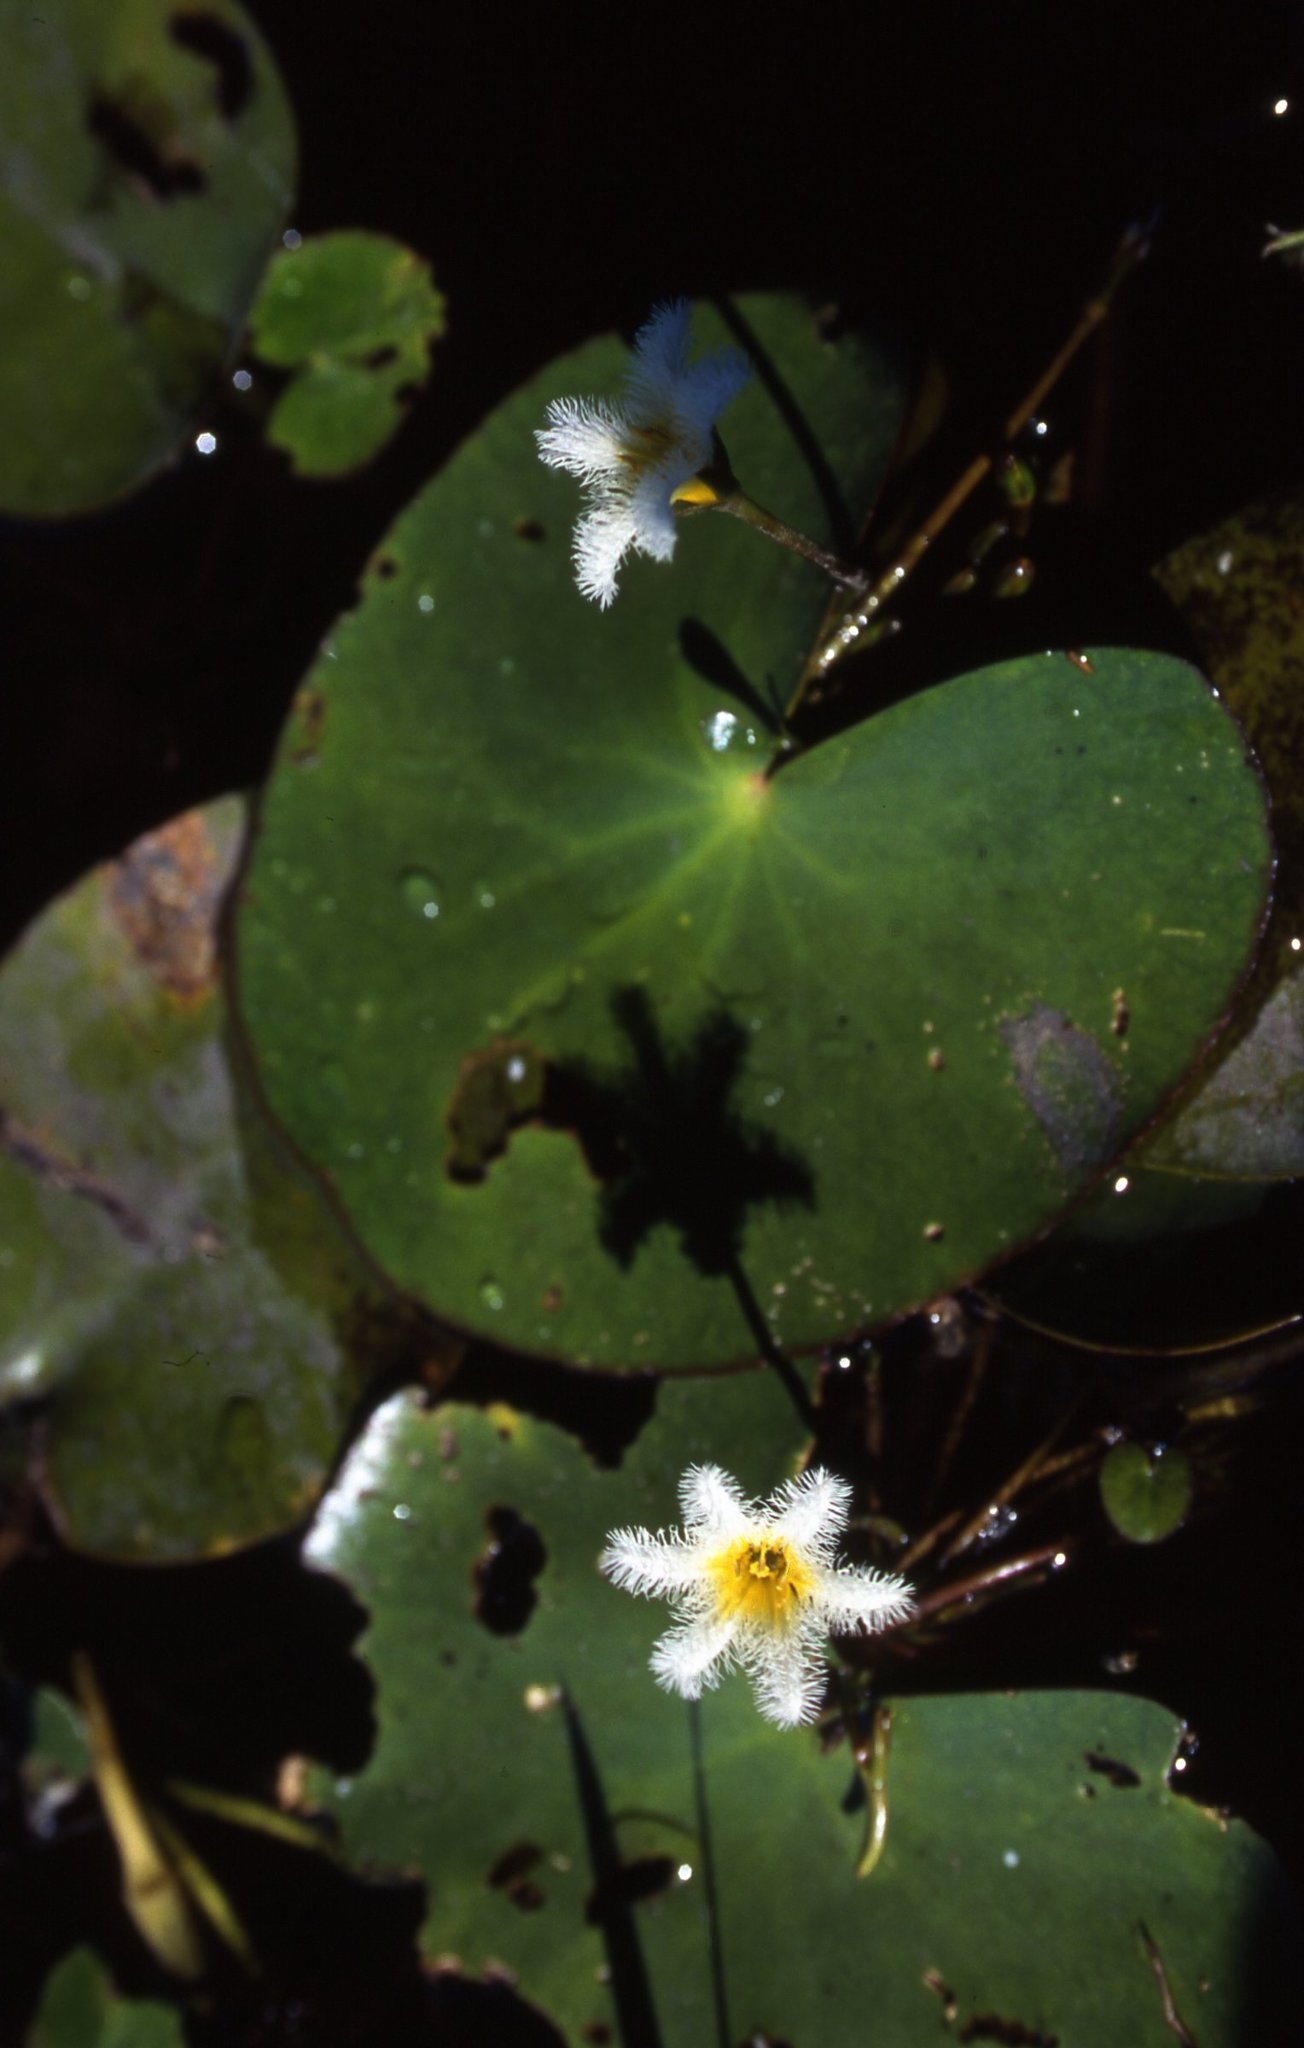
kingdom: Plantae
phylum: Tracheophyta
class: Magnoliopsida
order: Asterales
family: Menyanthaceae
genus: Nymphoides
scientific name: Nymphoides humboldtiana
